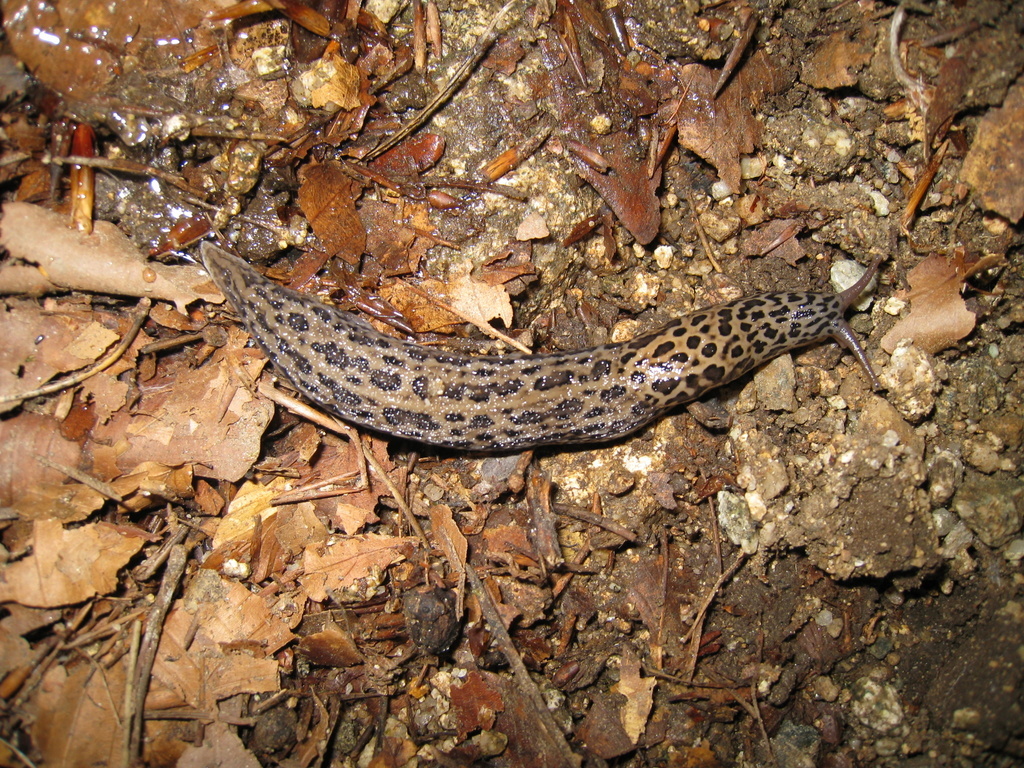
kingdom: Animalia
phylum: Mollusca
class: Gastropoda
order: Stylommatophora
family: Limacidae
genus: Limax
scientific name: Limax maximus
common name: Great grey slug
